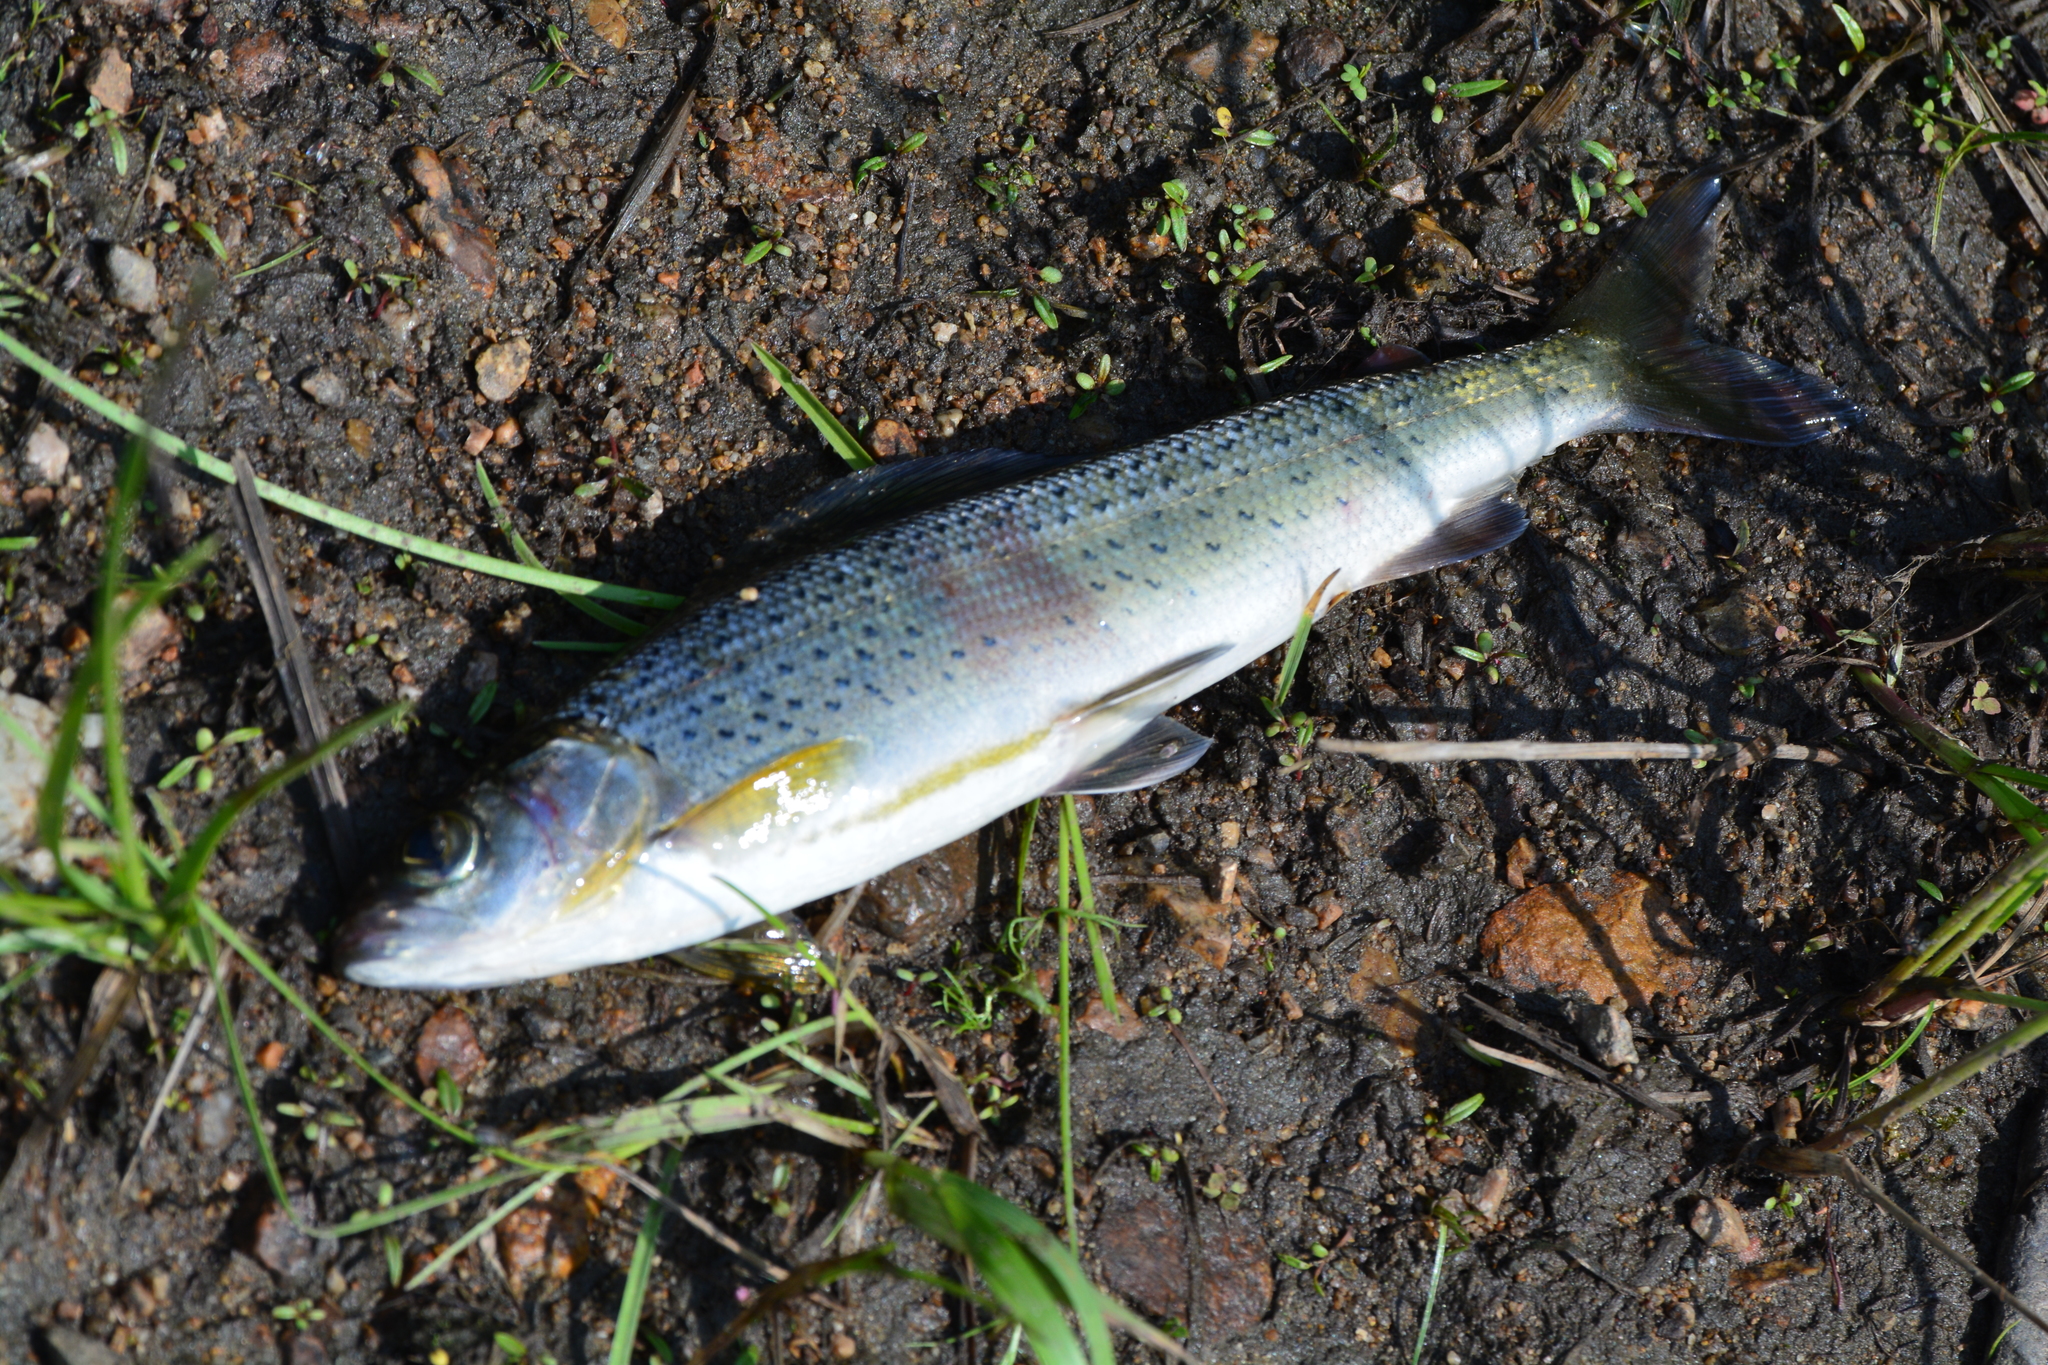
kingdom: Animalia
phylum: Chordata
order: Salmoniformes
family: Salmonidae
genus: Thymallus
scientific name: Thymallus grubii
